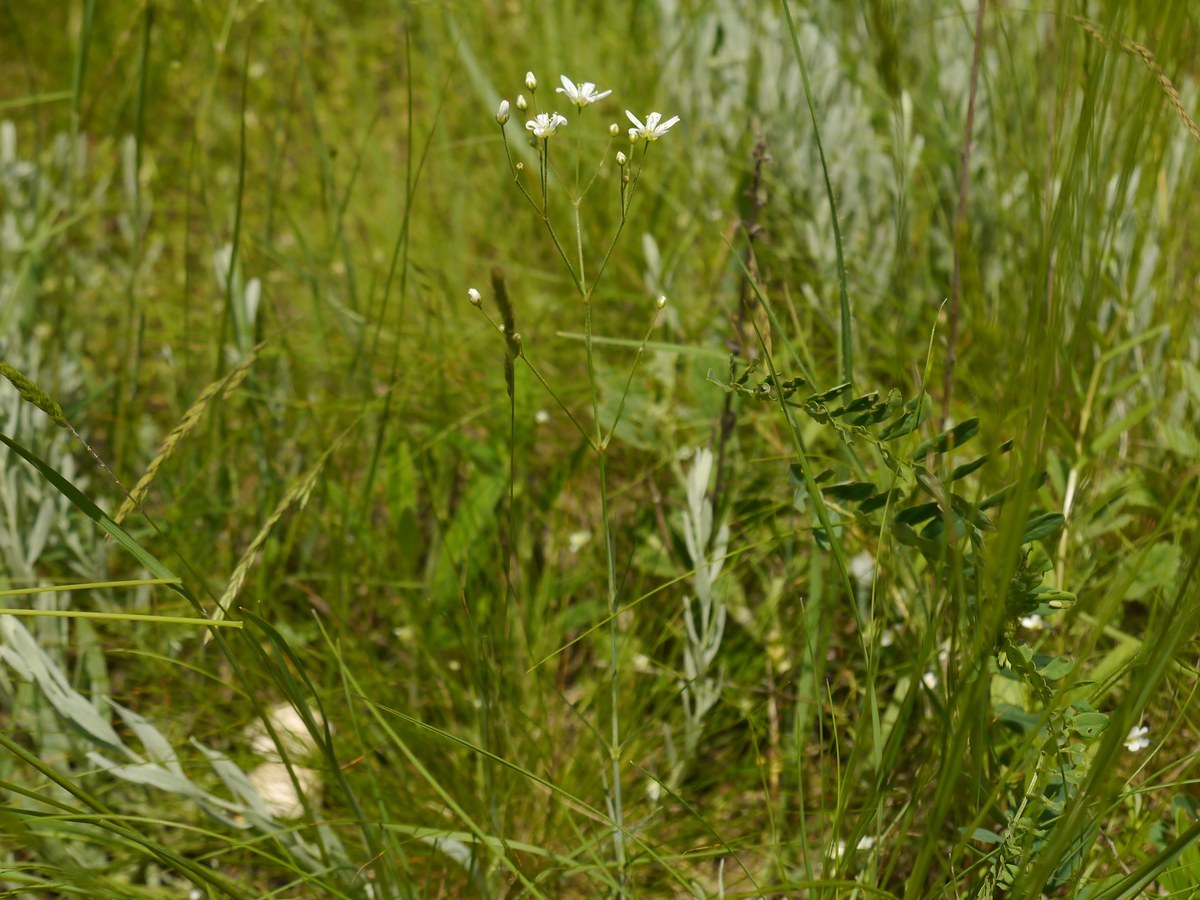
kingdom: Plantae
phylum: Tracheophyta
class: Magnoliopsida
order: Caryophyllales
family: Caryophyllaceae
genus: Eremogone
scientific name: Eremogone biebersteinii
